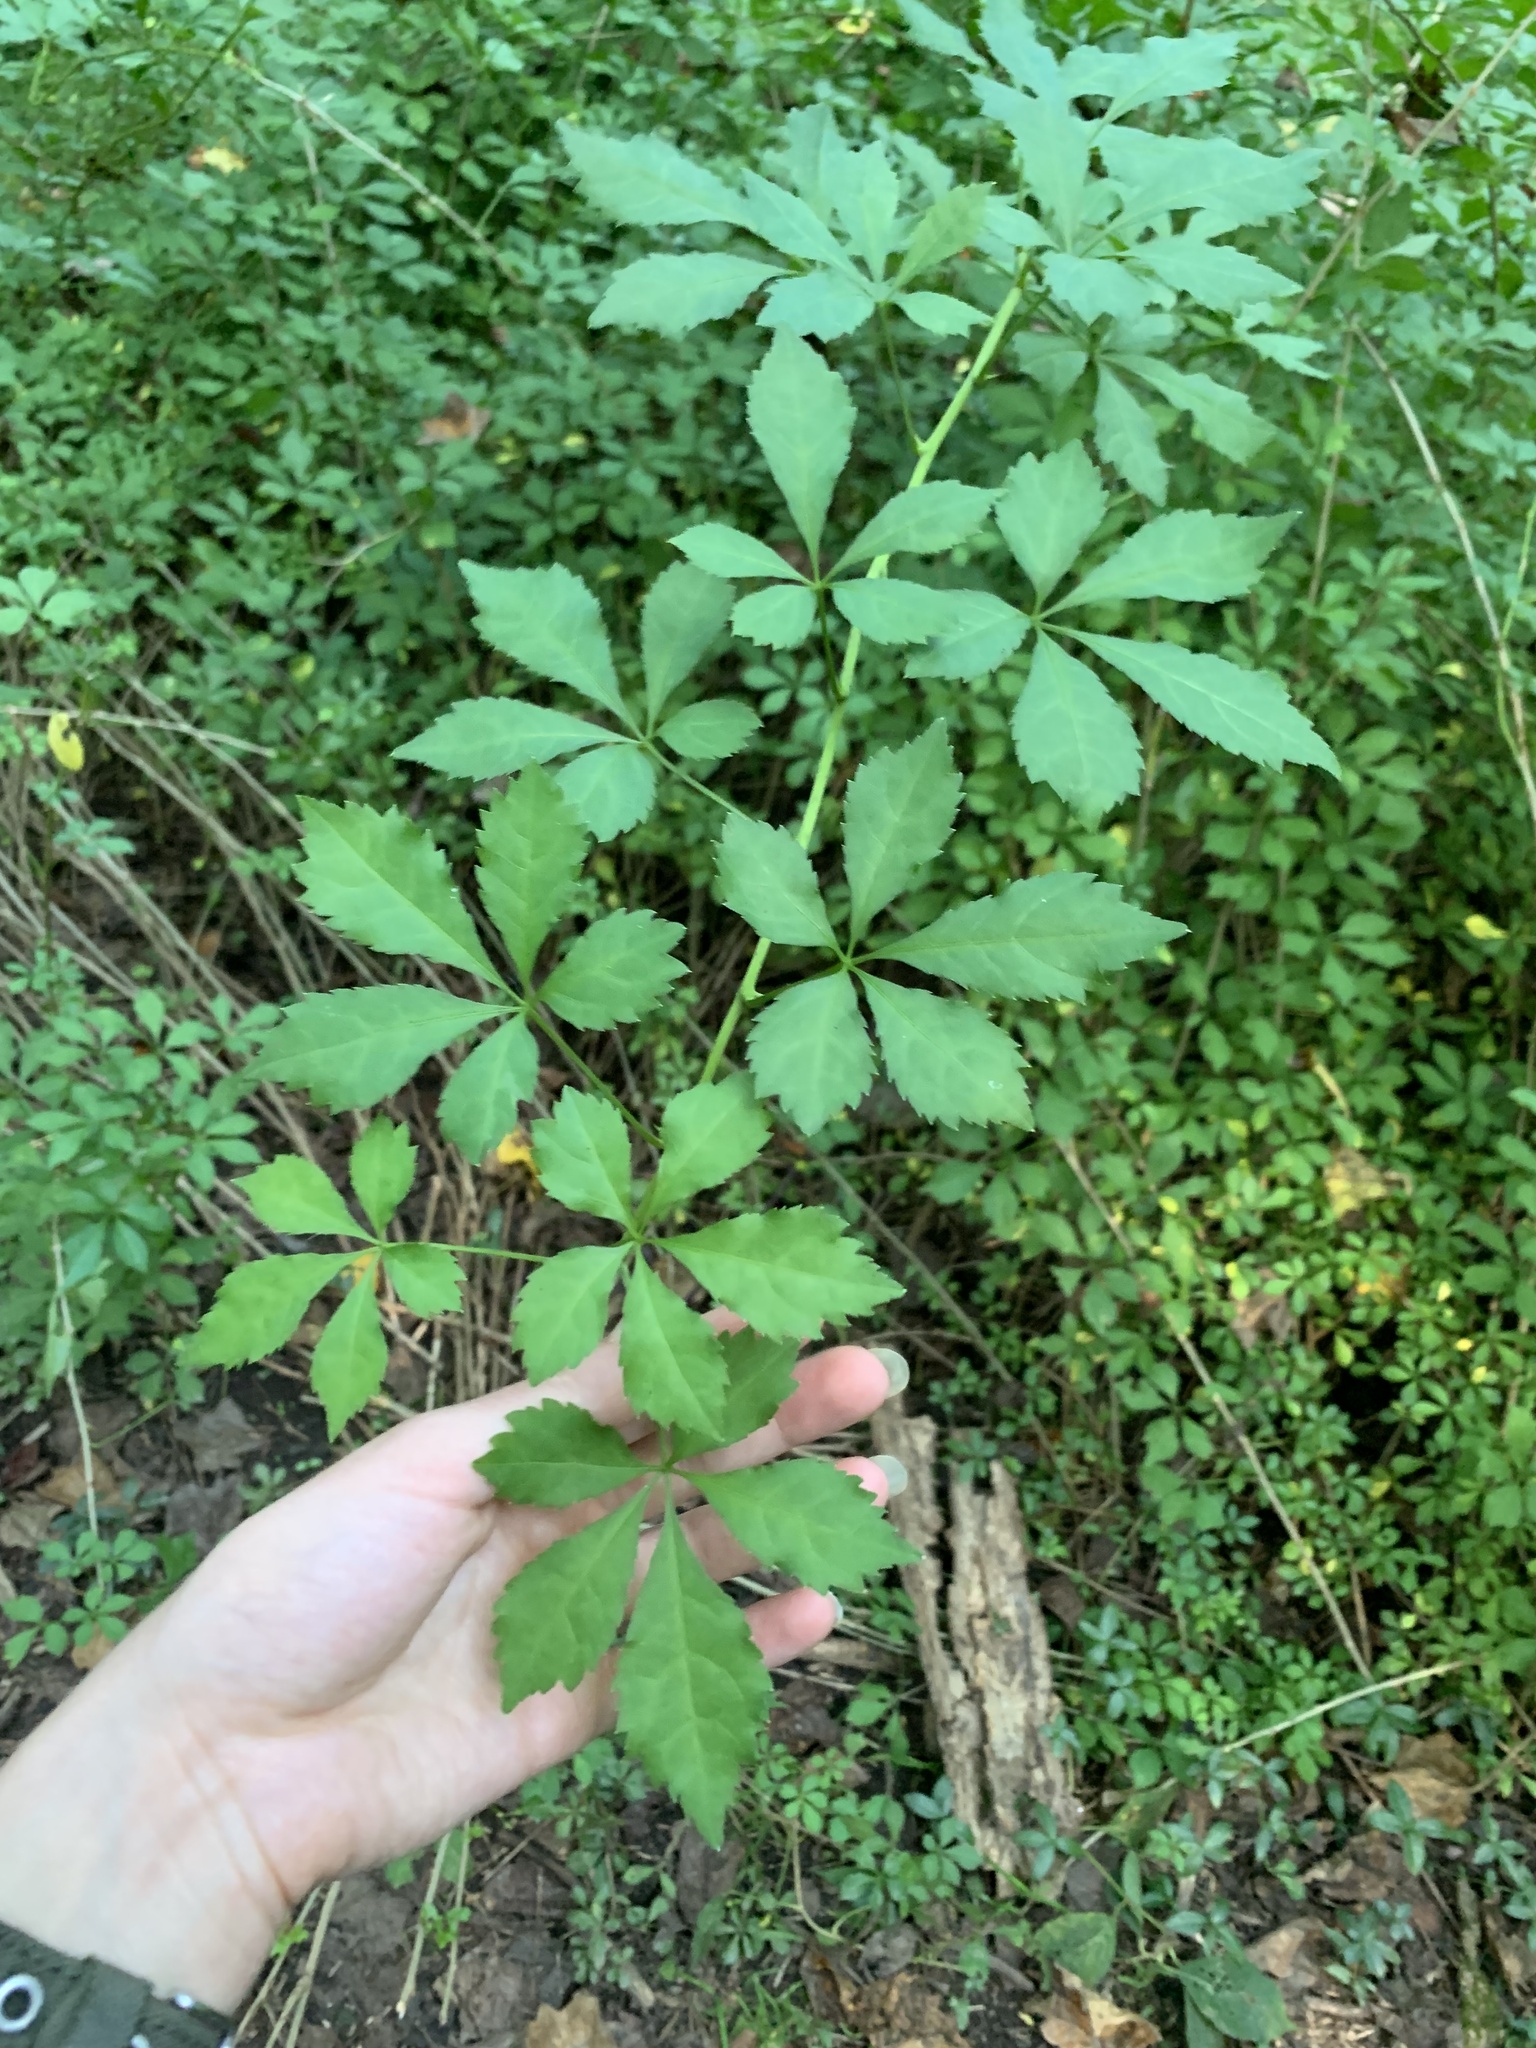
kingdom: Plantae
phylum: Tracheophyta
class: Magnoliopsida
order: Apiales
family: Araliaceae
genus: Eleutherococcus
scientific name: Eleutherococcus sieboldianus
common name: Ginseng
